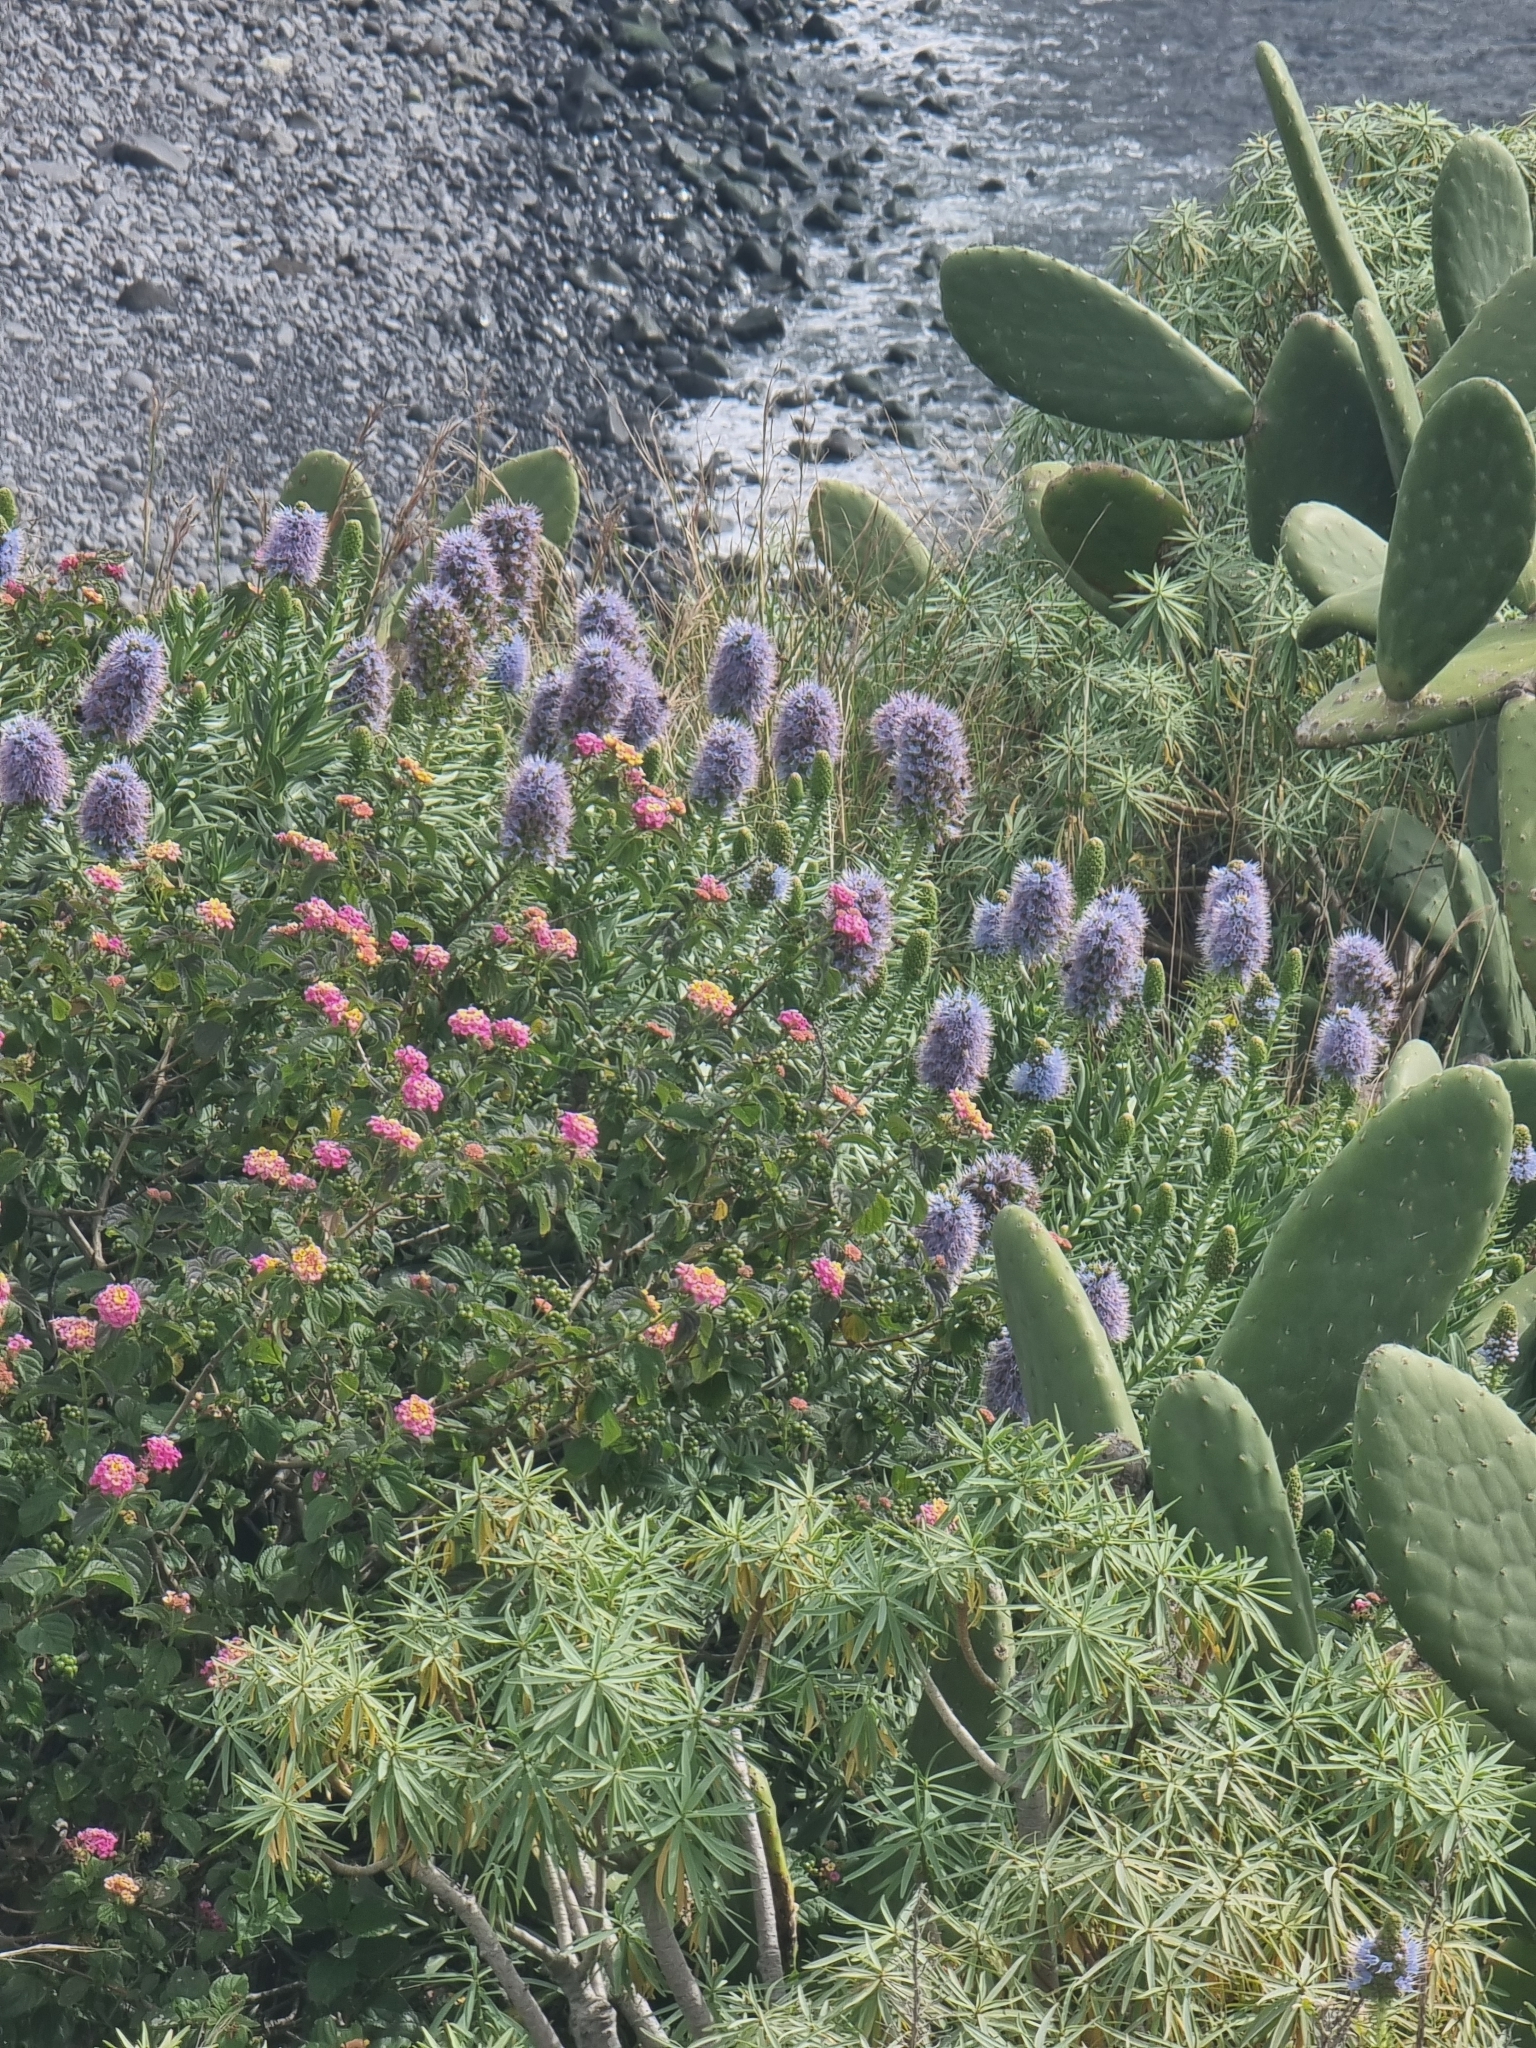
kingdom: Plantae
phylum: Tracheophyta
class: Magnoliopsida
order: Boraginales
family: Boraginaceae
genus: Echium
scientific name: Echium nervosum
